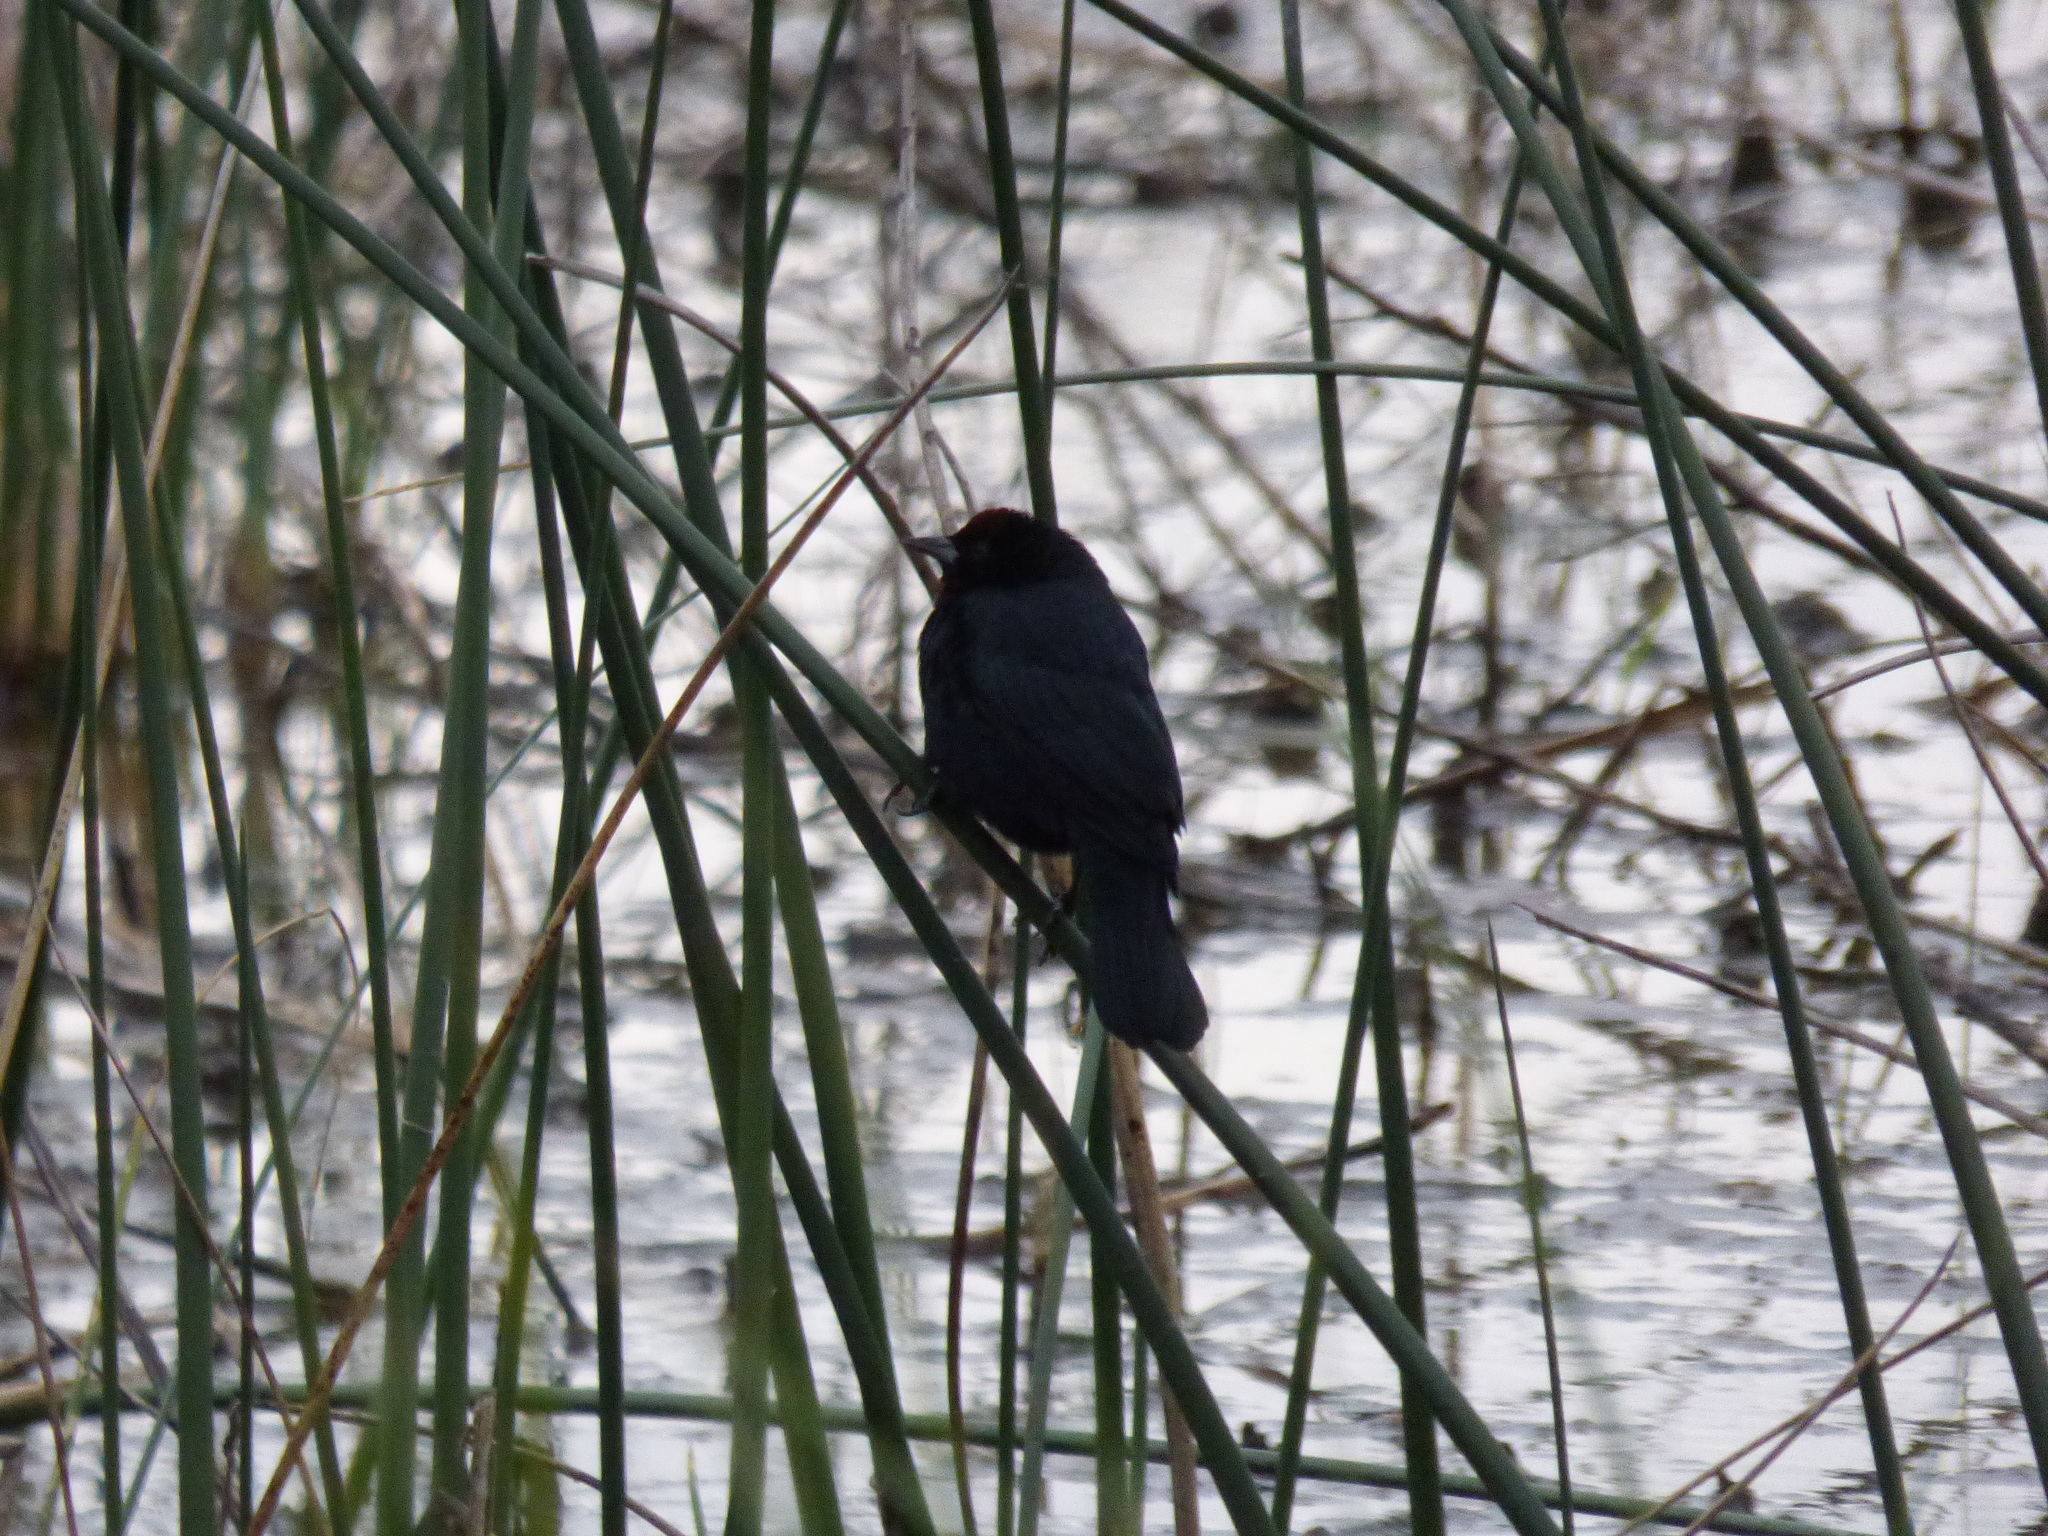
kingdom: Animalia
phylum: Chordata
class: Aves
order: Passeriformes
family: Icteridae
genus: Chrysomus
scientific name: Chrysomus ruficapillus
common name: Chestnut-capped blackbird
